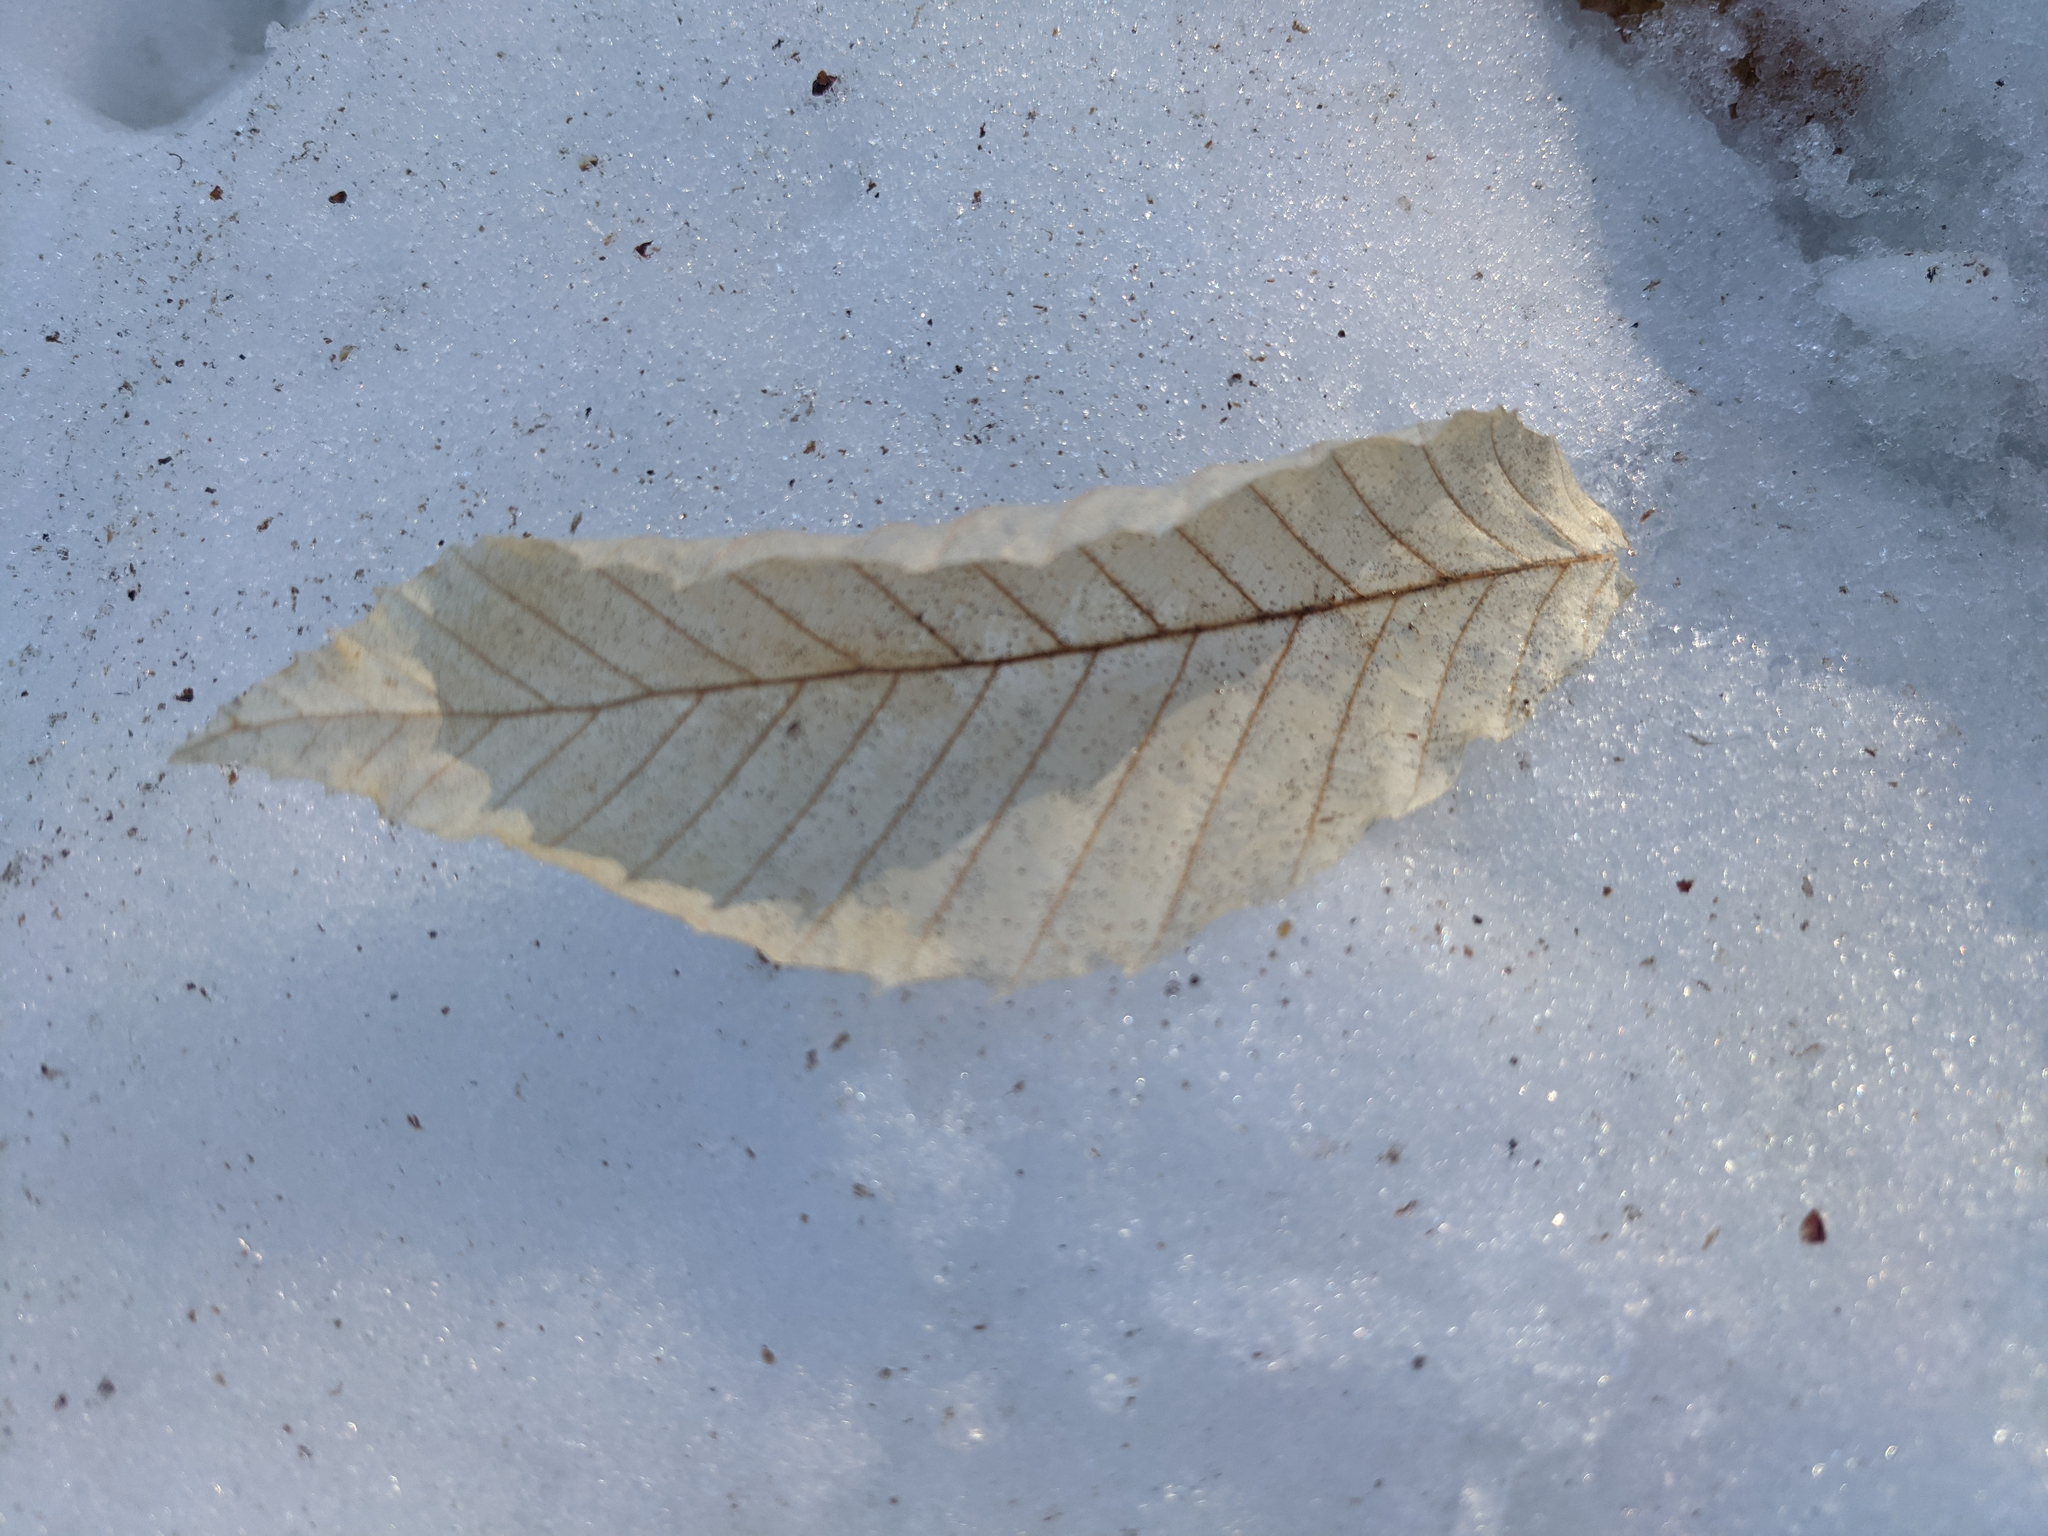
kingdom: Plantae
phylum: Tracheophyta
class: Magnoliopsida
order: Fagales
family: Fagaceae
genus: Fagus
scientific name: Fagus grandifolia
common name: American beech
